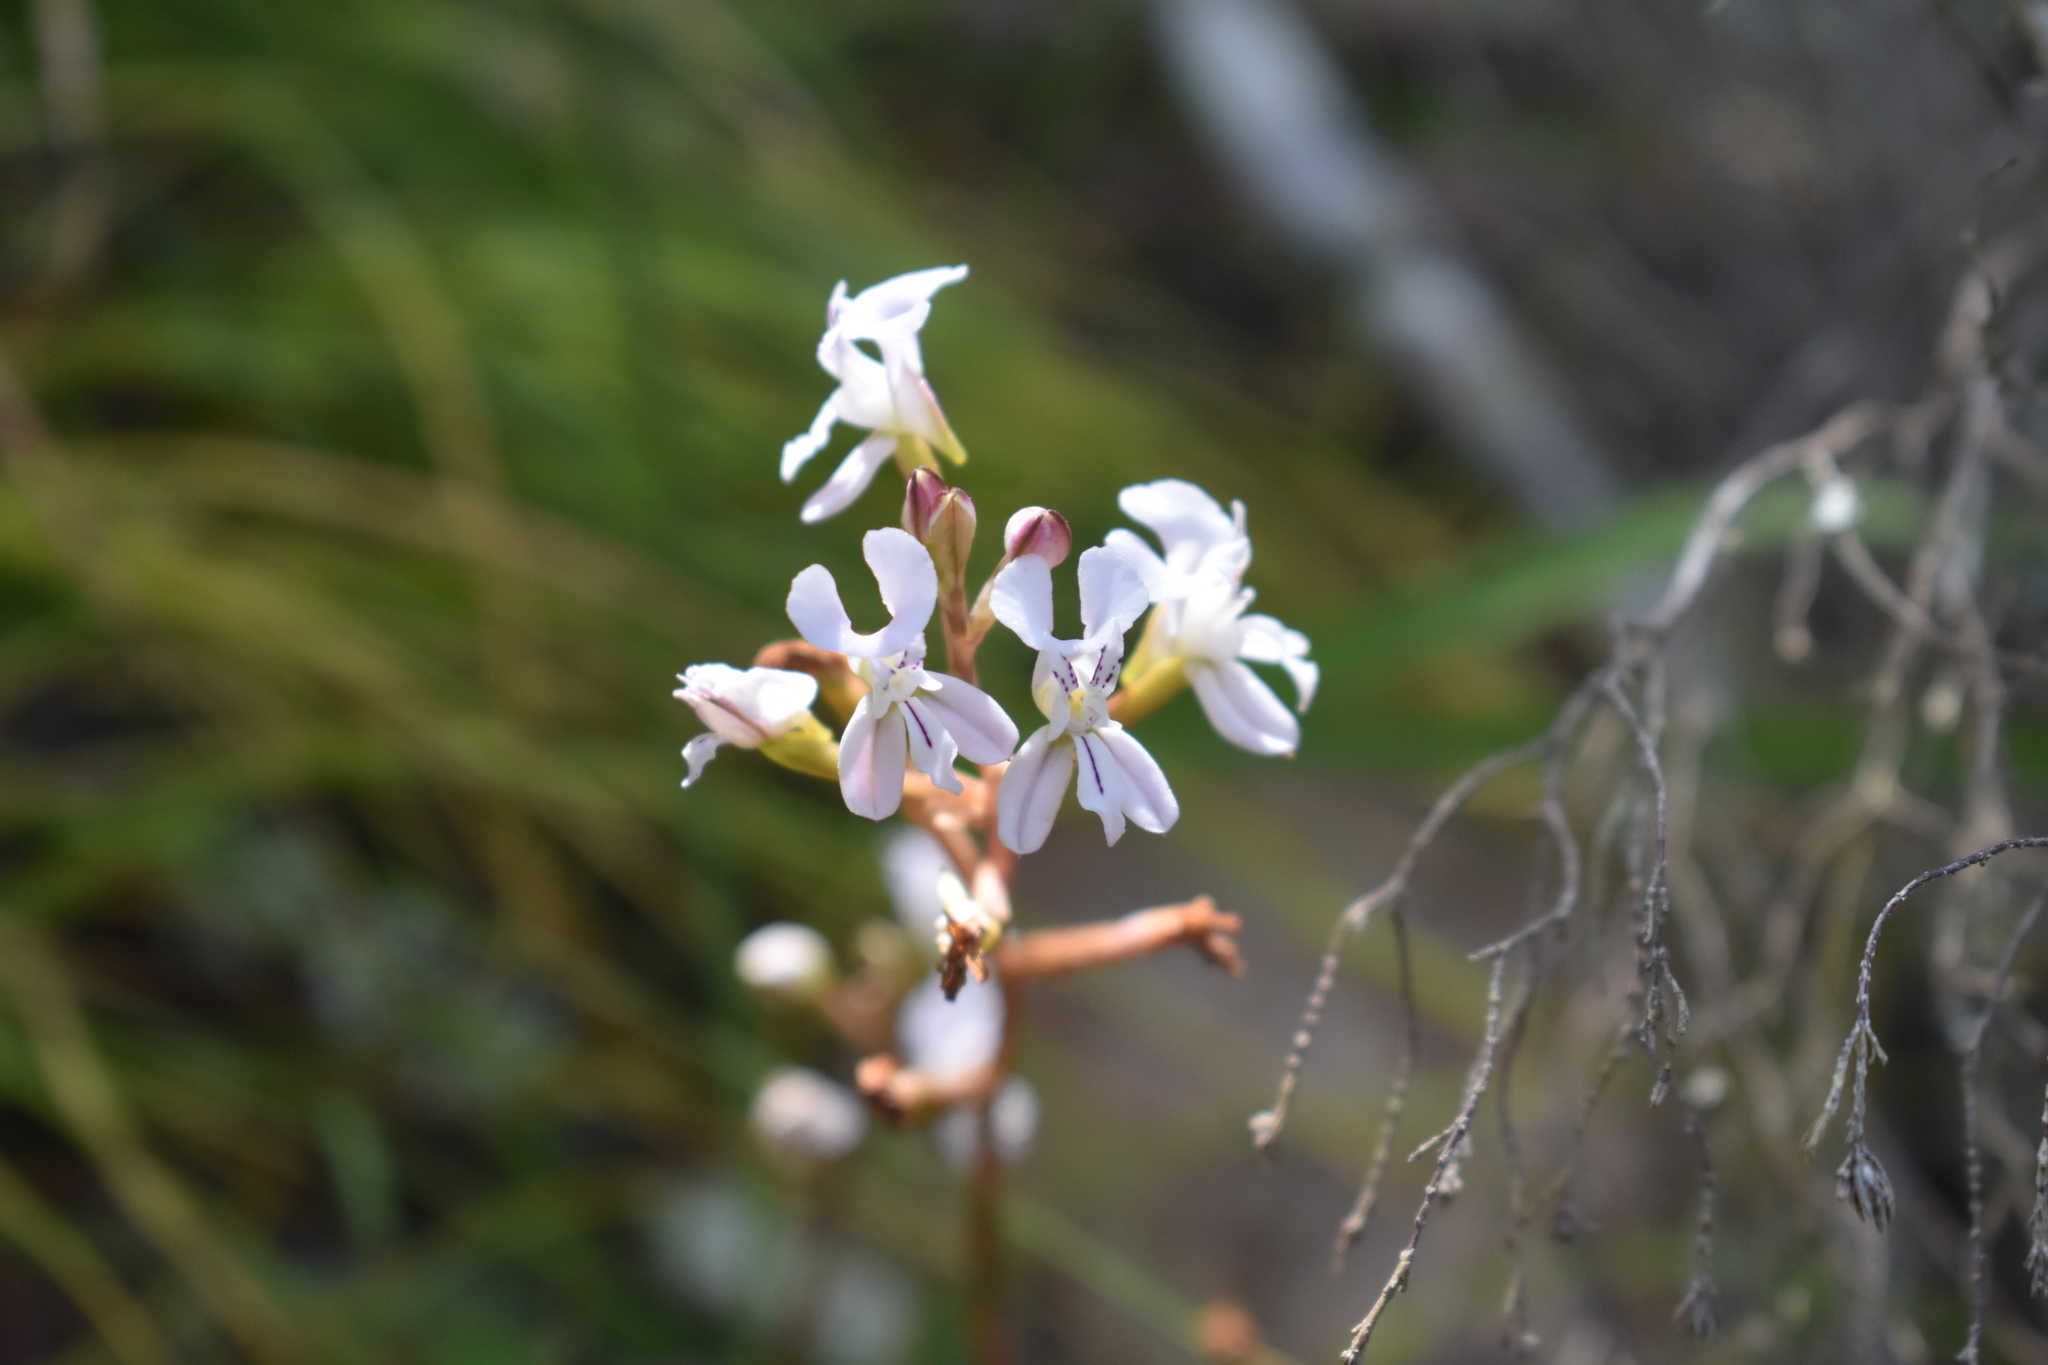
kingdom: Plantae
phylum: Tracheophyta
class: Liliopsida
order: Asparagales
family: Orchidaceae
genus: Disa
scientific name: Disa sagittalis
